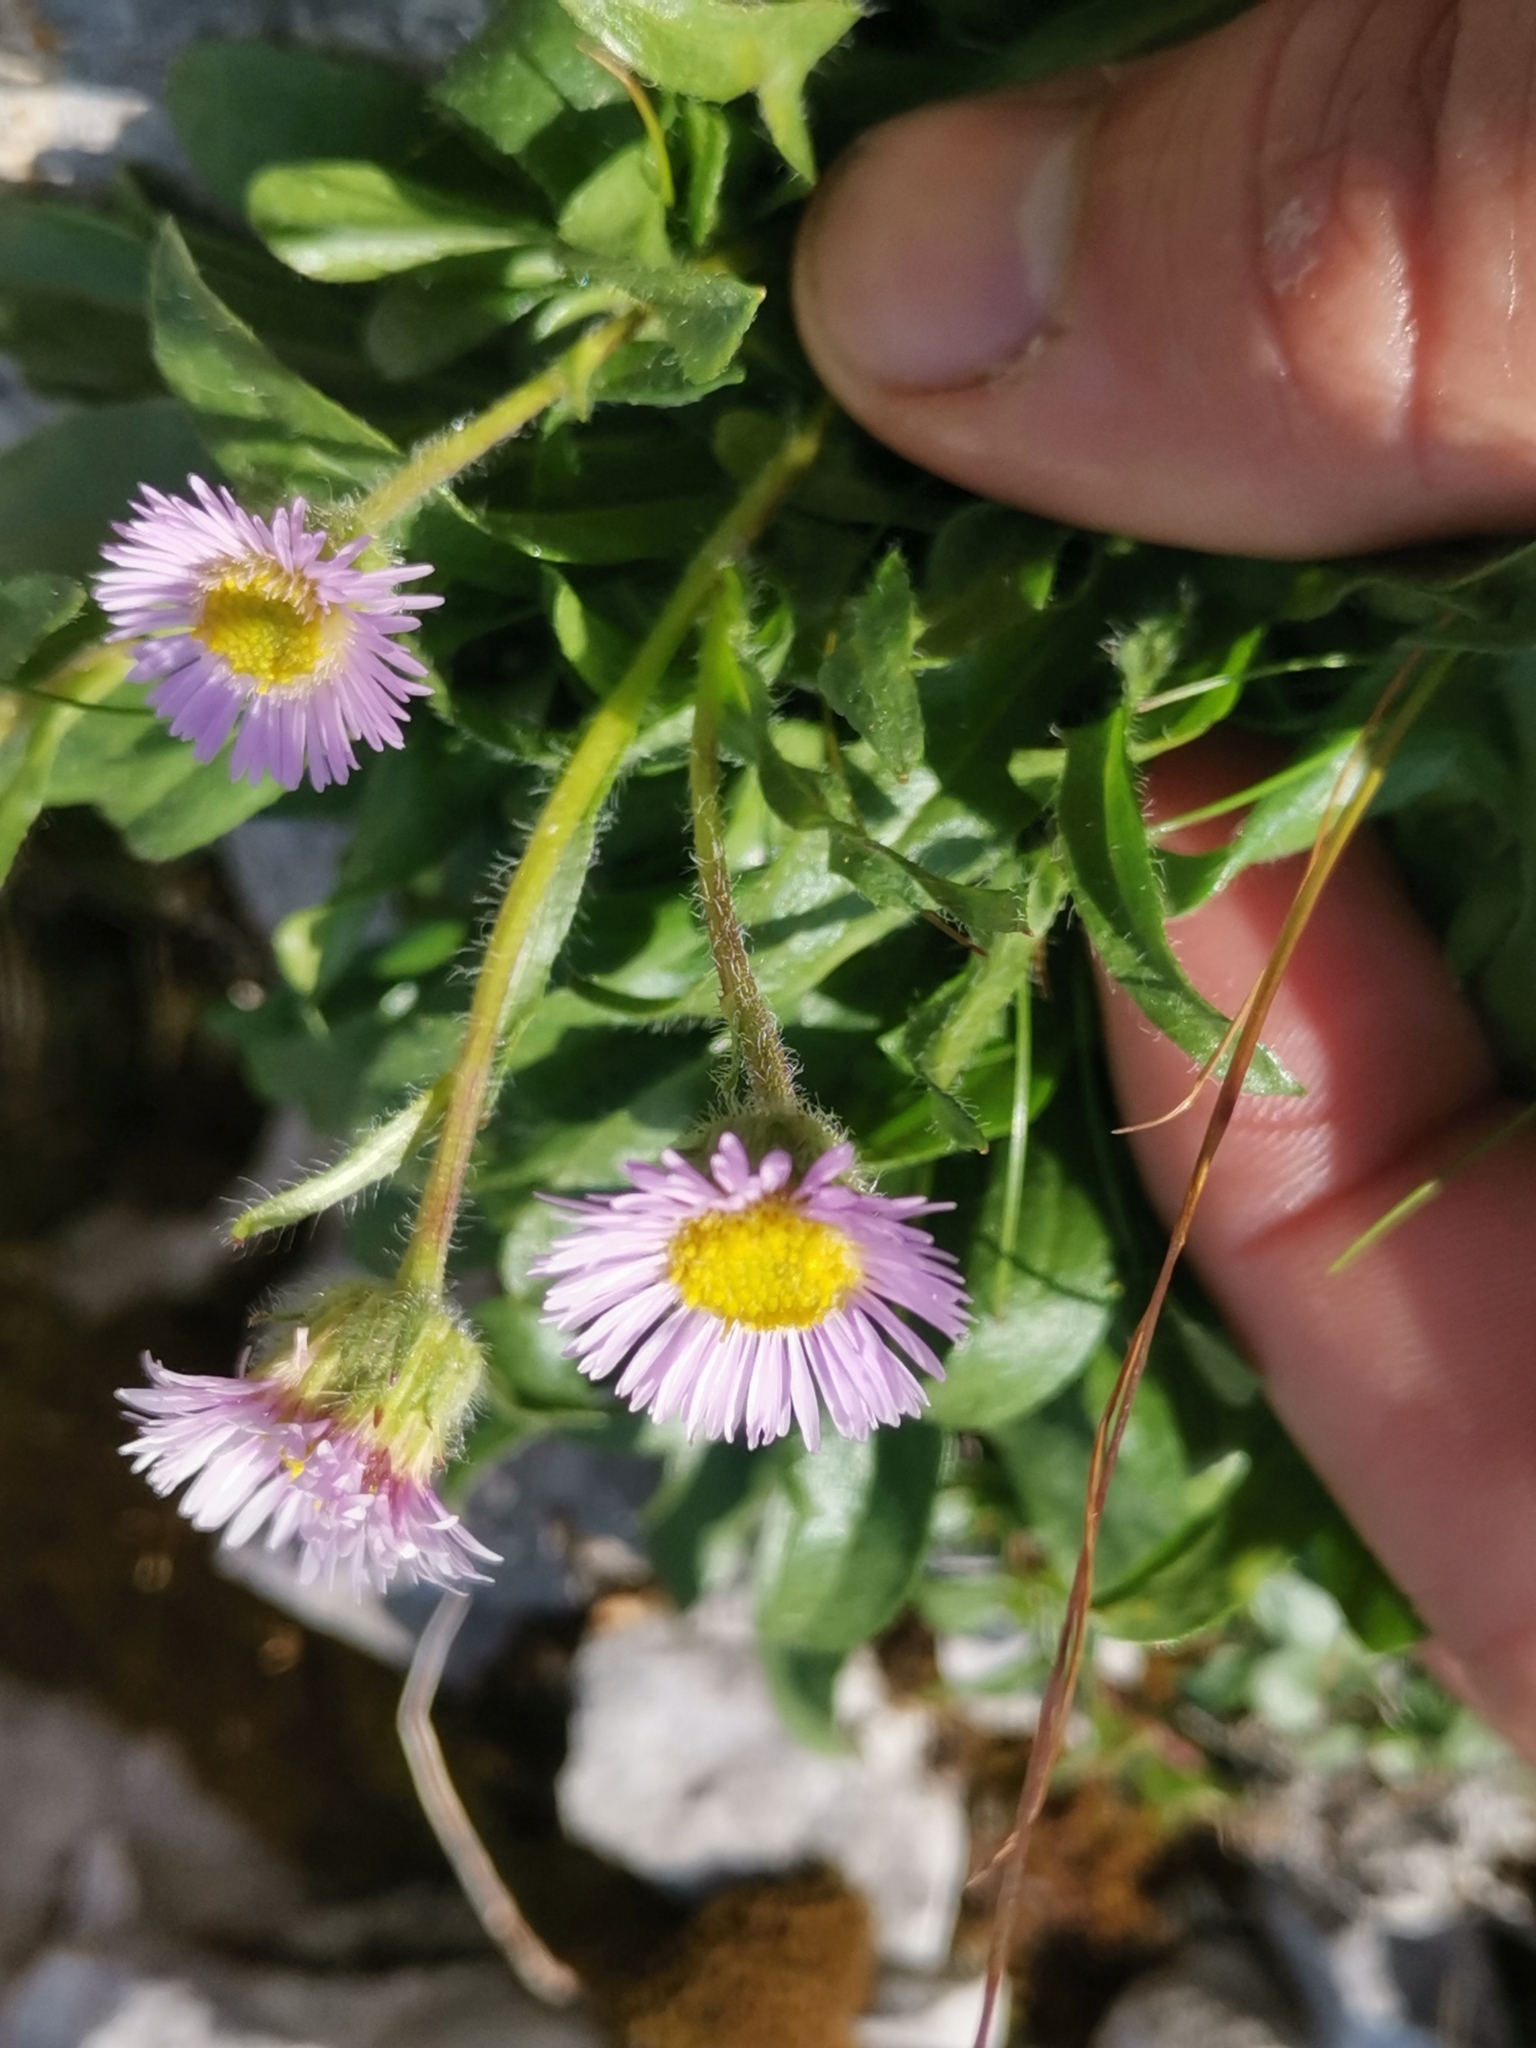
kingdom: Plantae
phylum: Tracheophyta
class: Magnoliopsida
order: Asterales
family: Asteraceae
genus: Erigeron
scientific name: Erigeron glabratus
